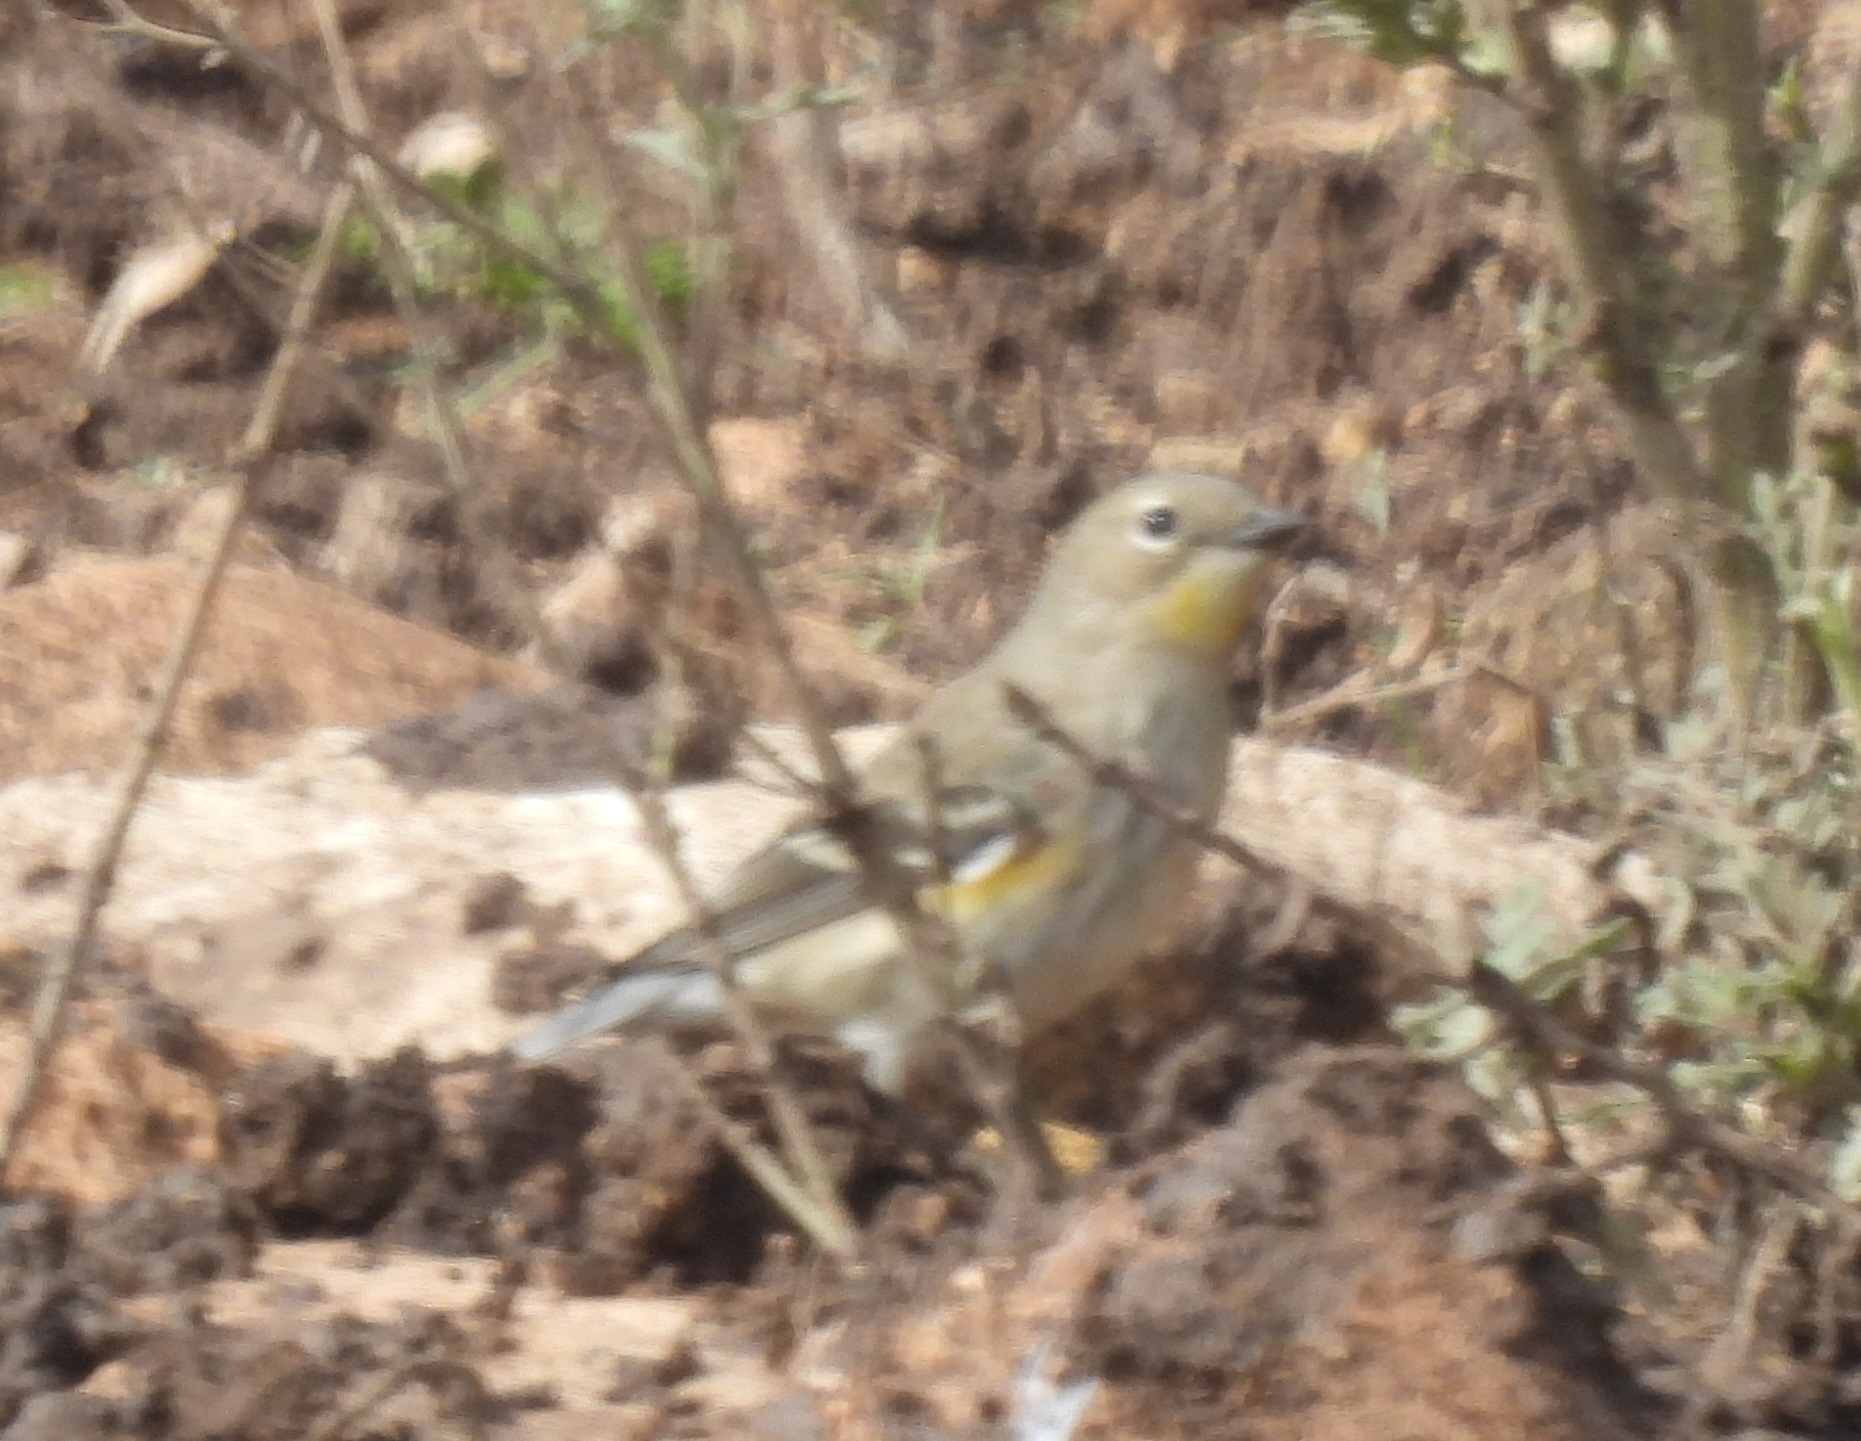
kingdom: Animalia
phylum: Chordata
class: Aves
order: Passeriformes
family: Parulidae
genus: Setophaga
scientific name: Setophaga auduboni
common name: Audubon's warbler
